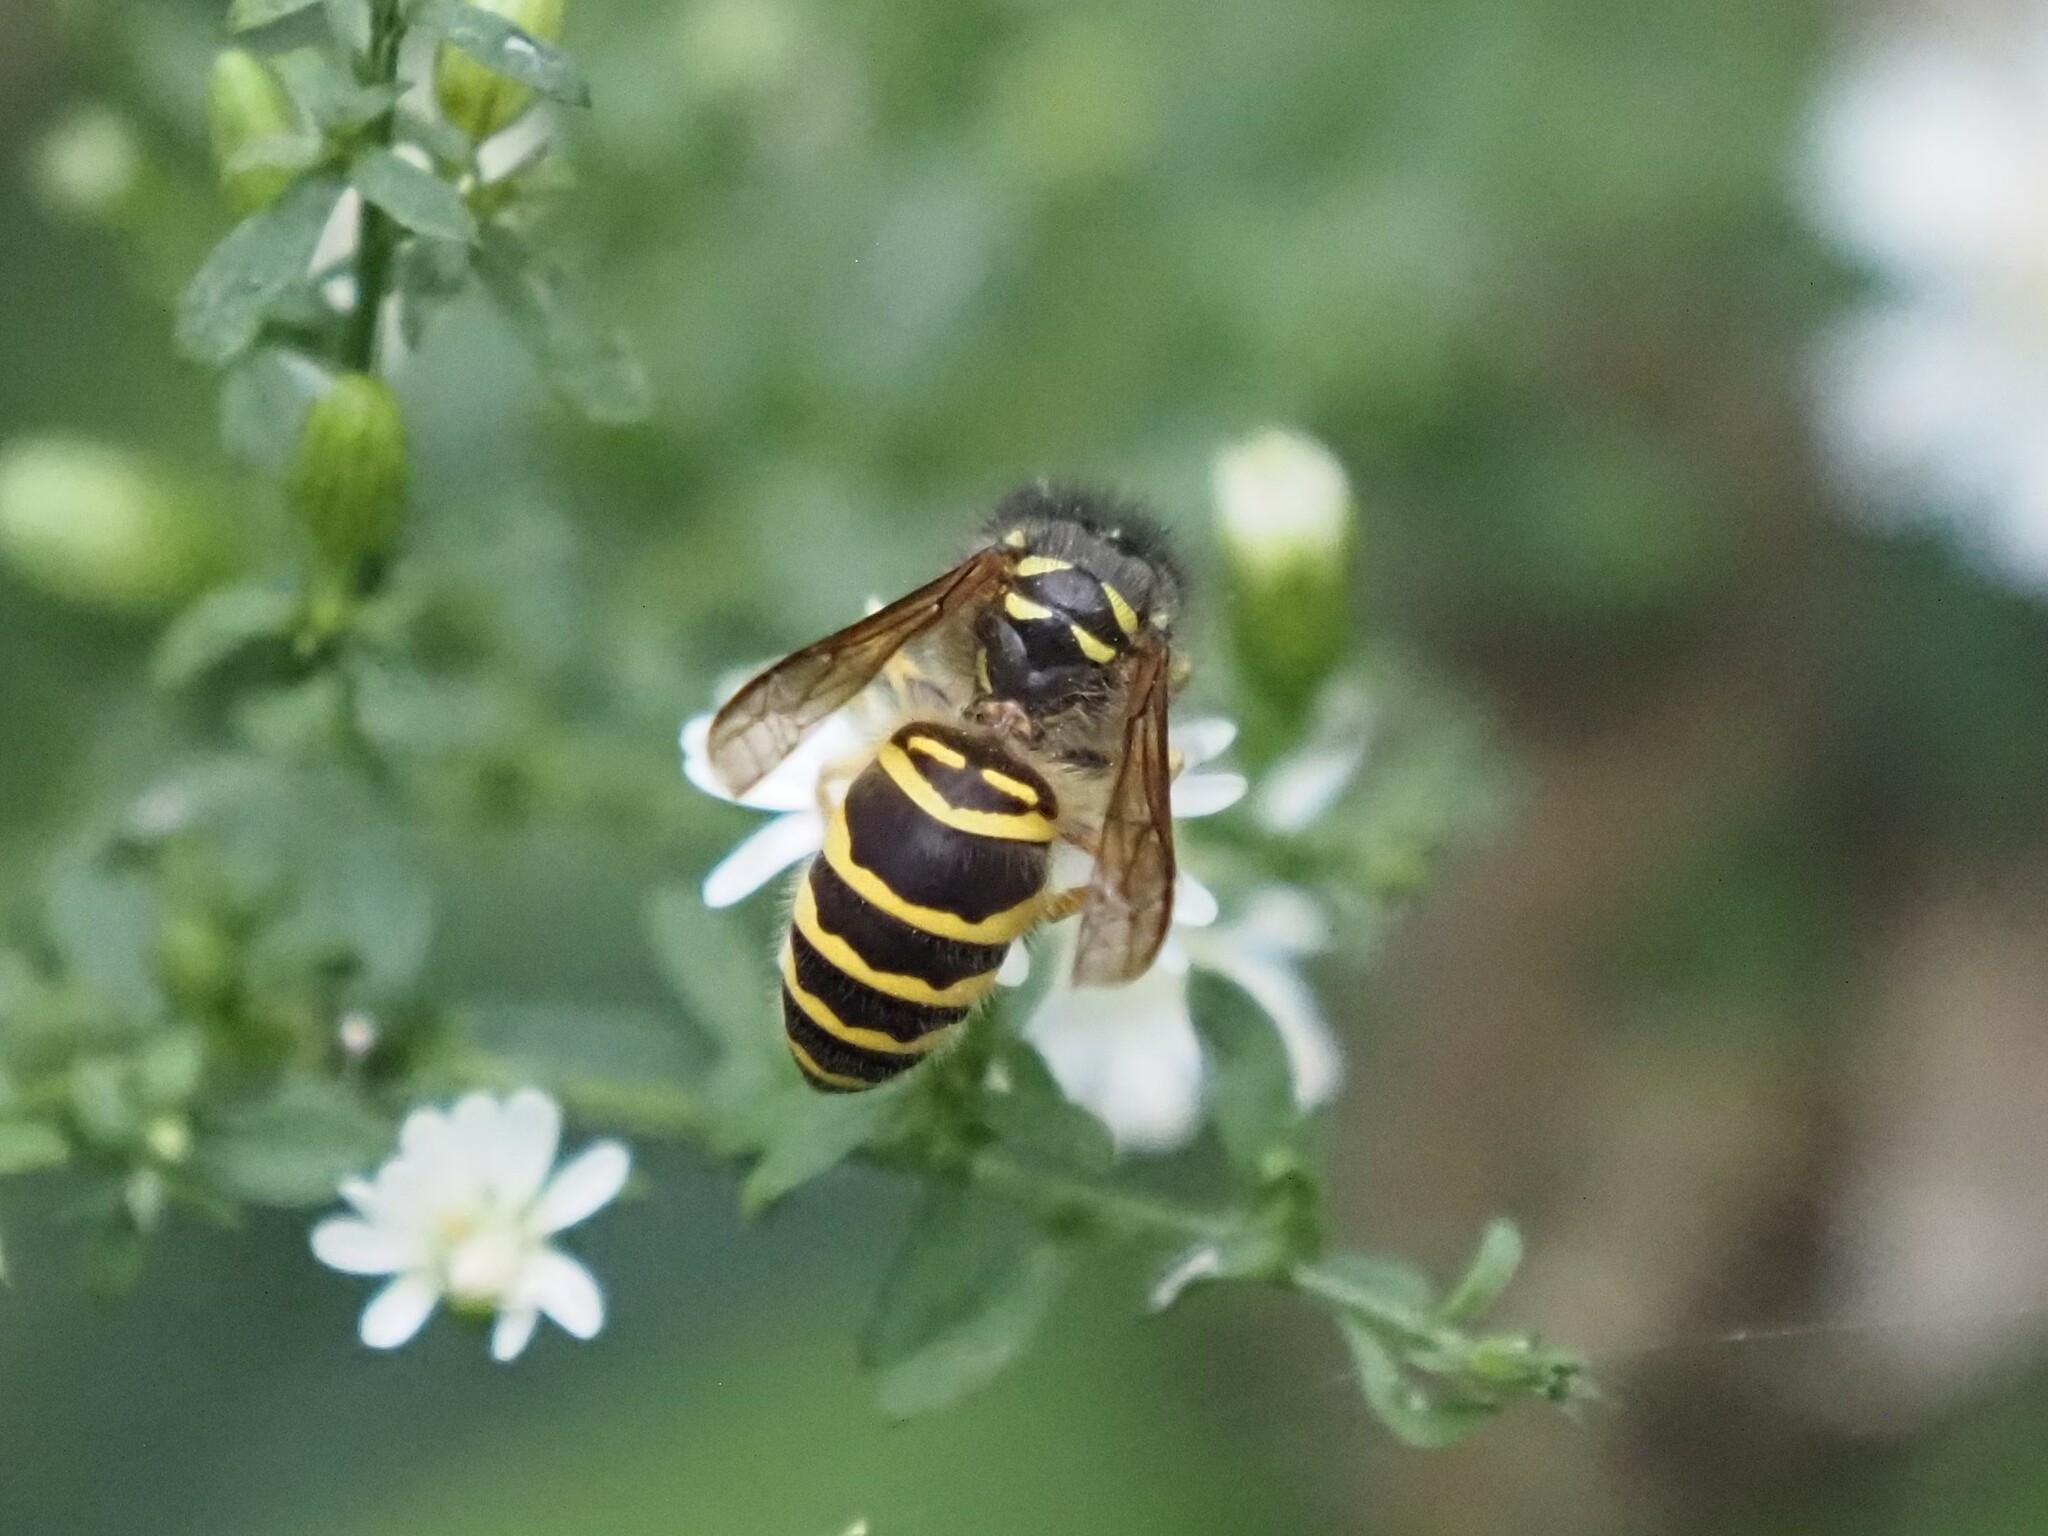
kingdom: Animalia
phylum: Arthropoda
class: Insecta
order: Hymenoptera
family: Vespidae
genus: Vespula
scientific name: Vespula maculifrons
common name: Eastern yellowjacket
